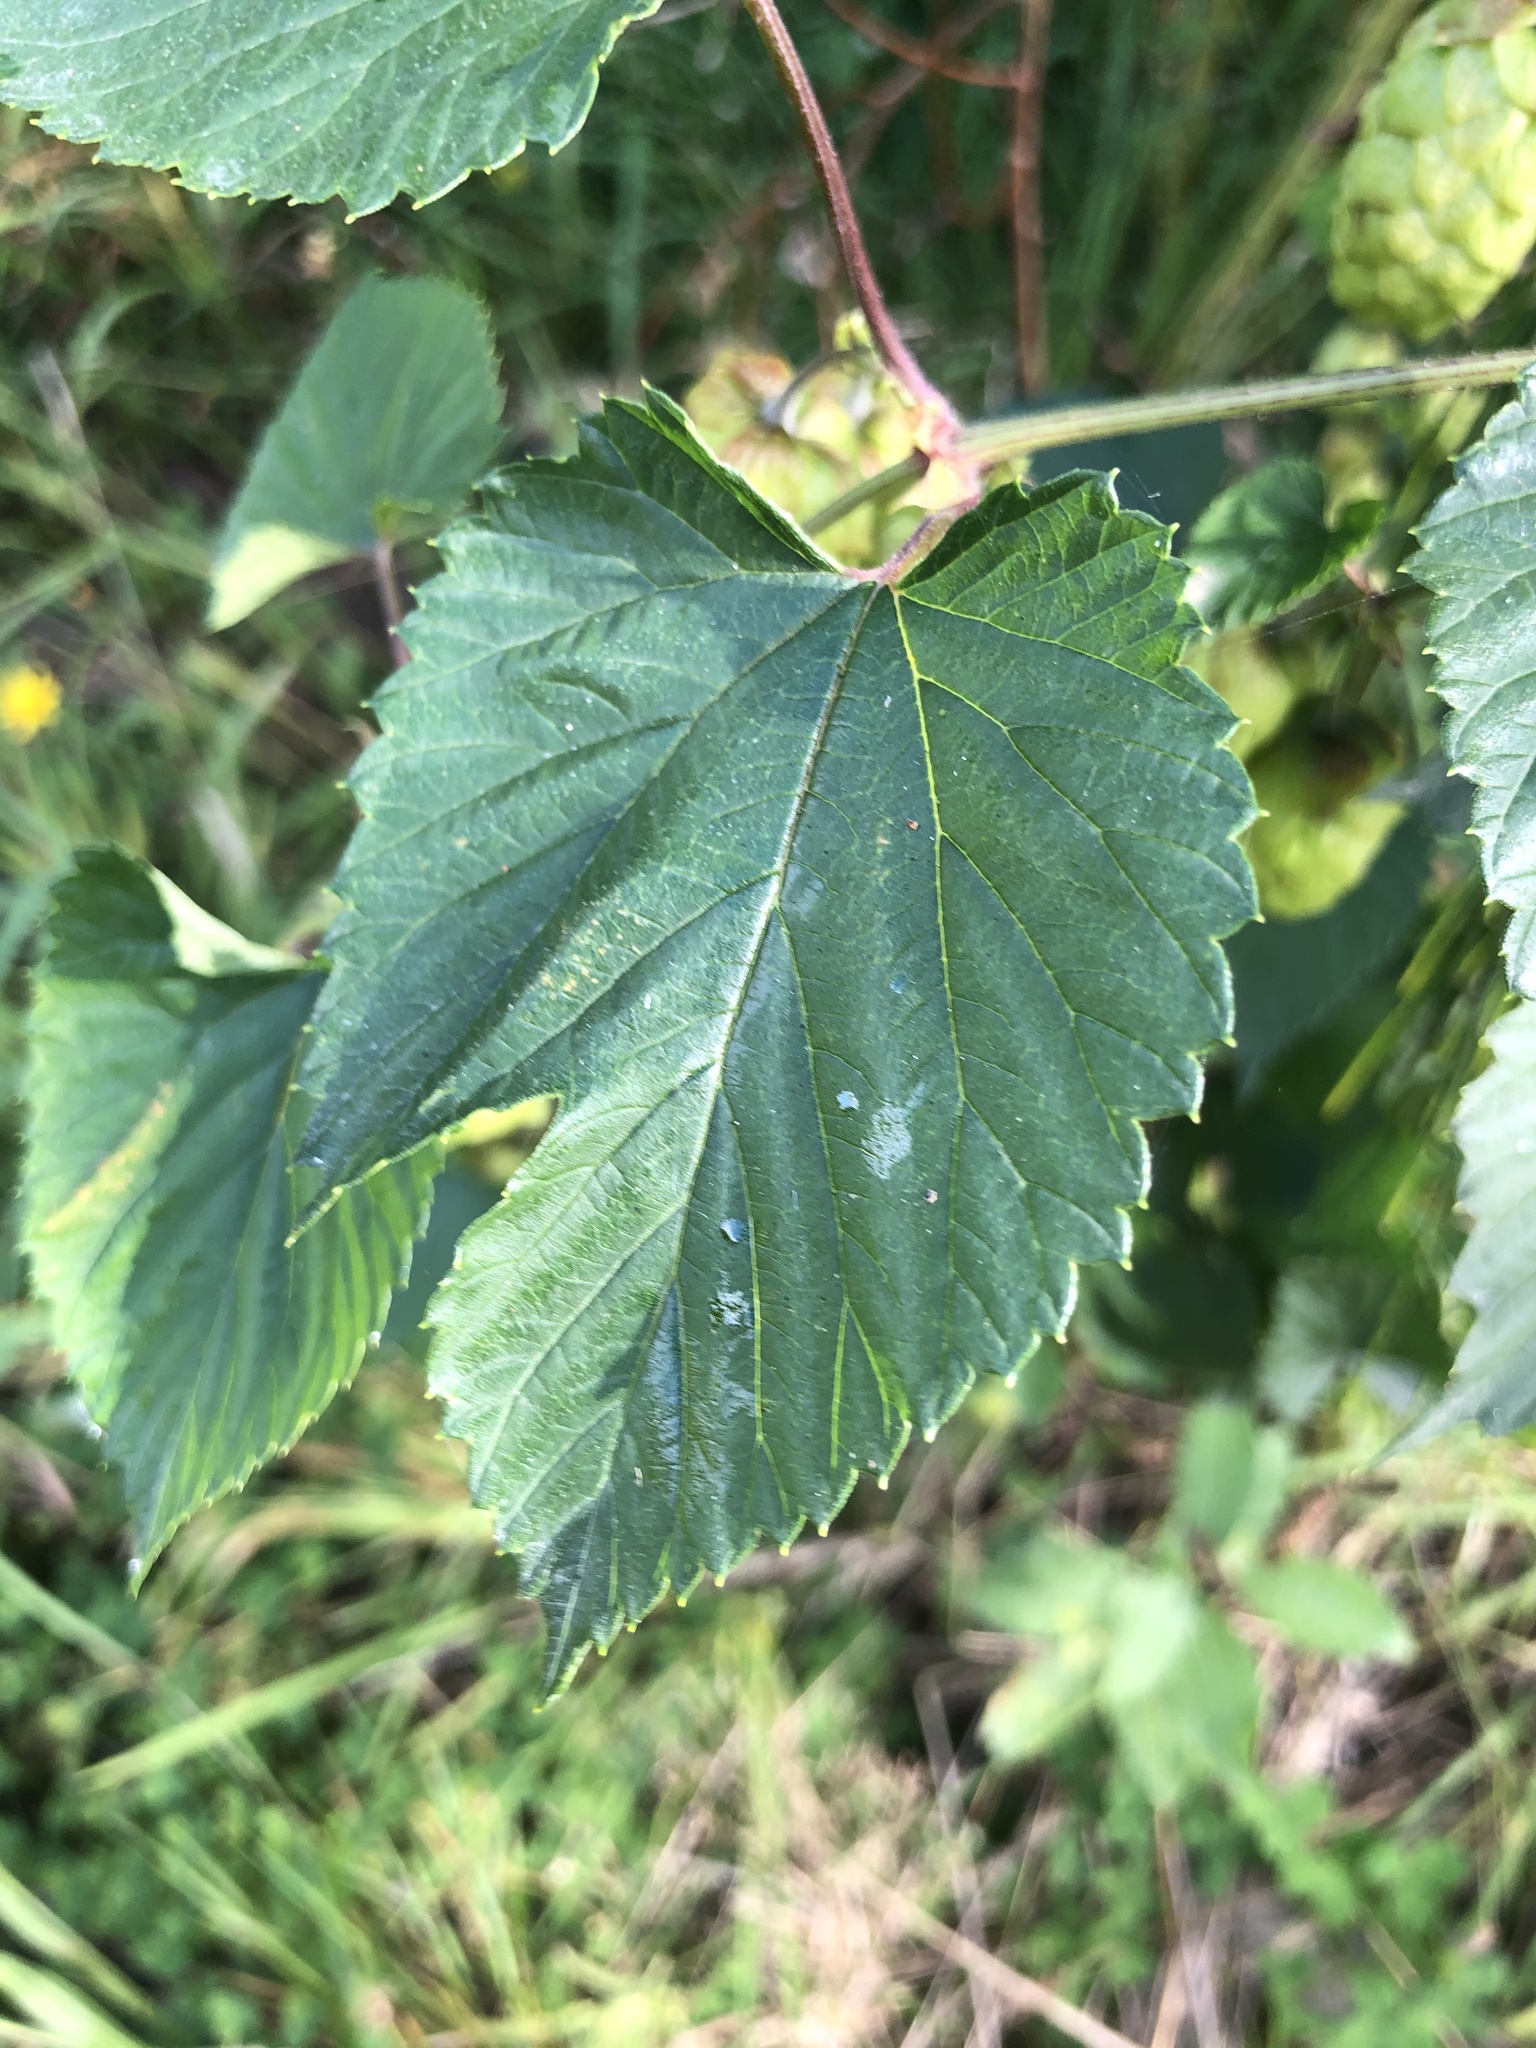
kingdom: Plantae
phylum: Tracheophyta
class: Magnoliopsida
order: Rosales
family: Cannabaceae
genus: Humulus
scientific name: Humulus lupulus
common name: Hop
